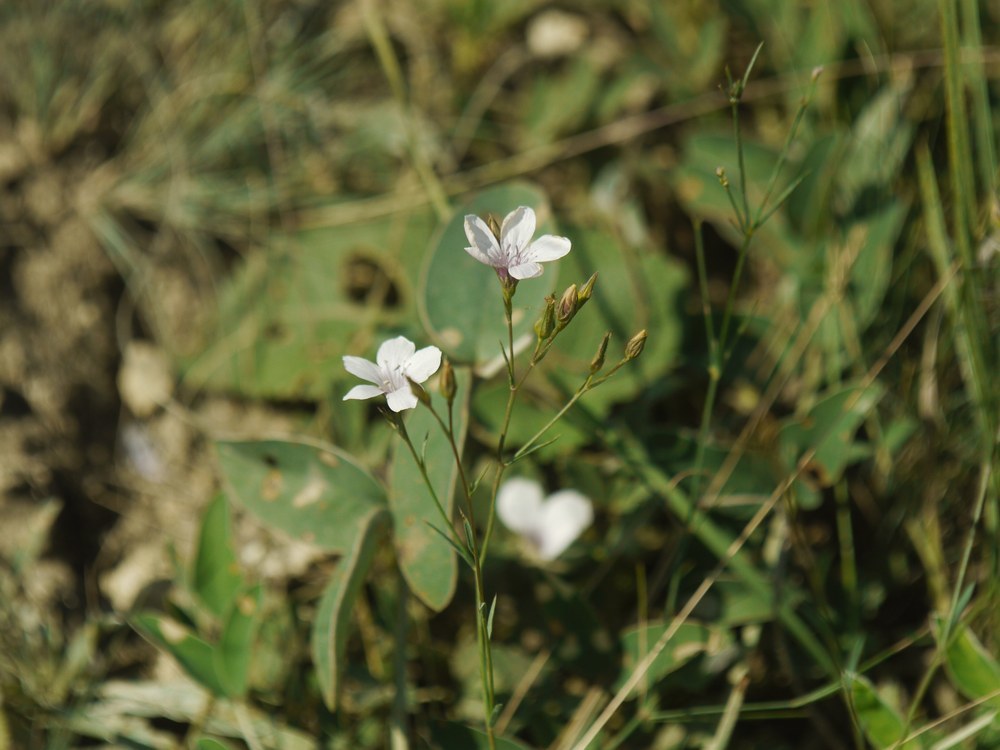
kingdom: Plantae
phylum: Tracheophyta
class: Magnoliopsida
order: Malpighiales
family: Linaceae
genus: Linum
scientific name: Linum tenuifolium
